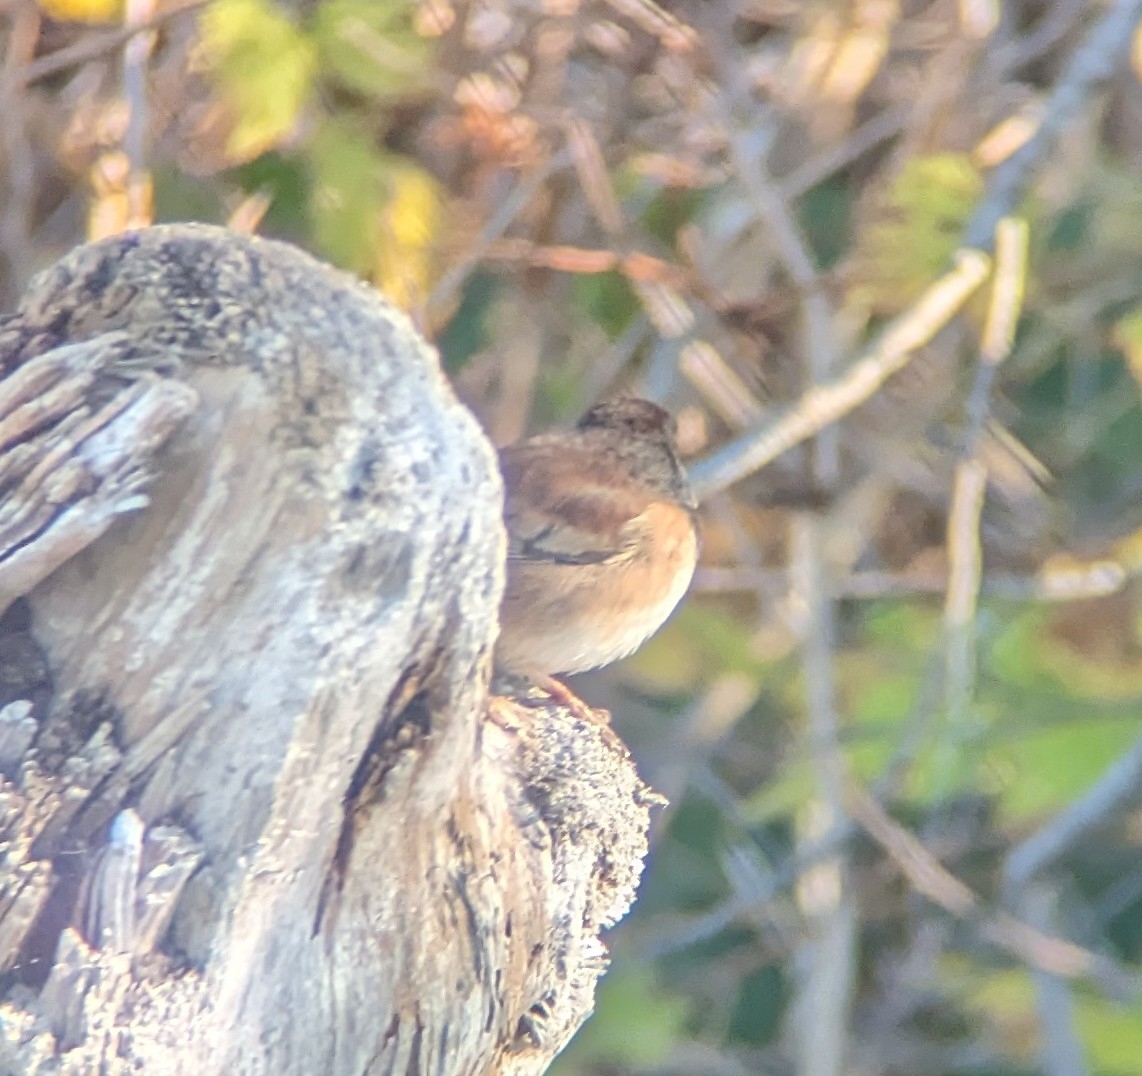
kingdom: Animalia
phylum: Chordata
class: Aves
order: Passeriformes
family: Passerellidae
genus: Junco
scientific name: Junco hyemalis
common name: Dark-eyed junco
